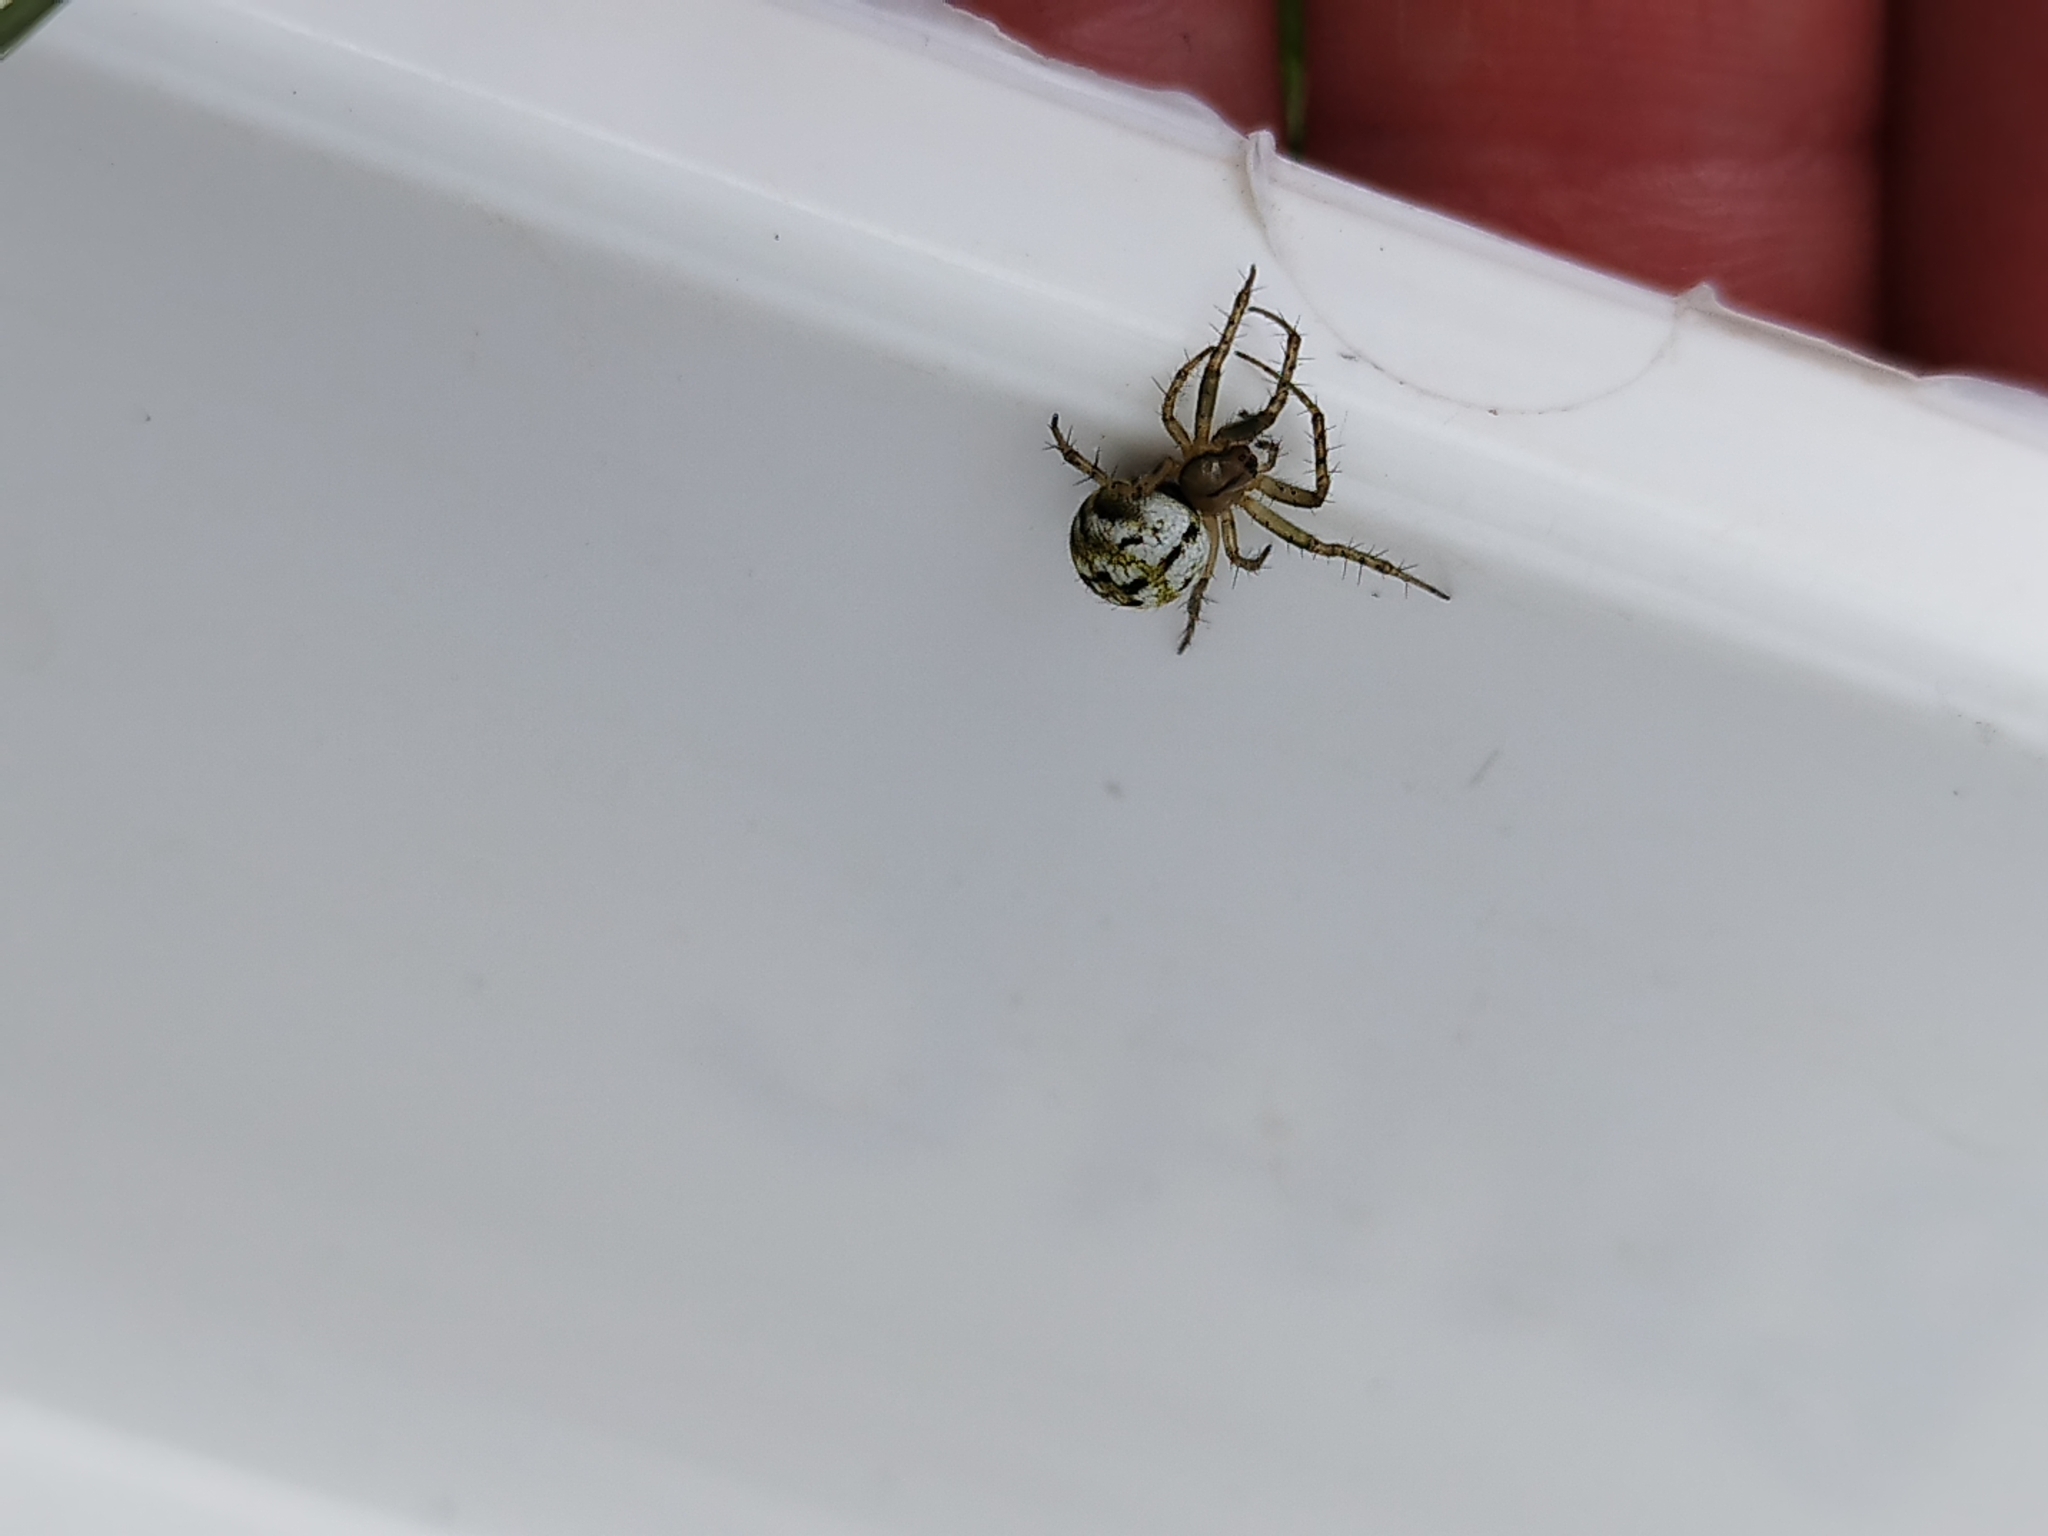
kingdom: Animalia
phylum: Arthropoda
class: Arachnida
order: Araneae
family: Araneidae
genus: Mangora
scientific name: Mangora acalypha
